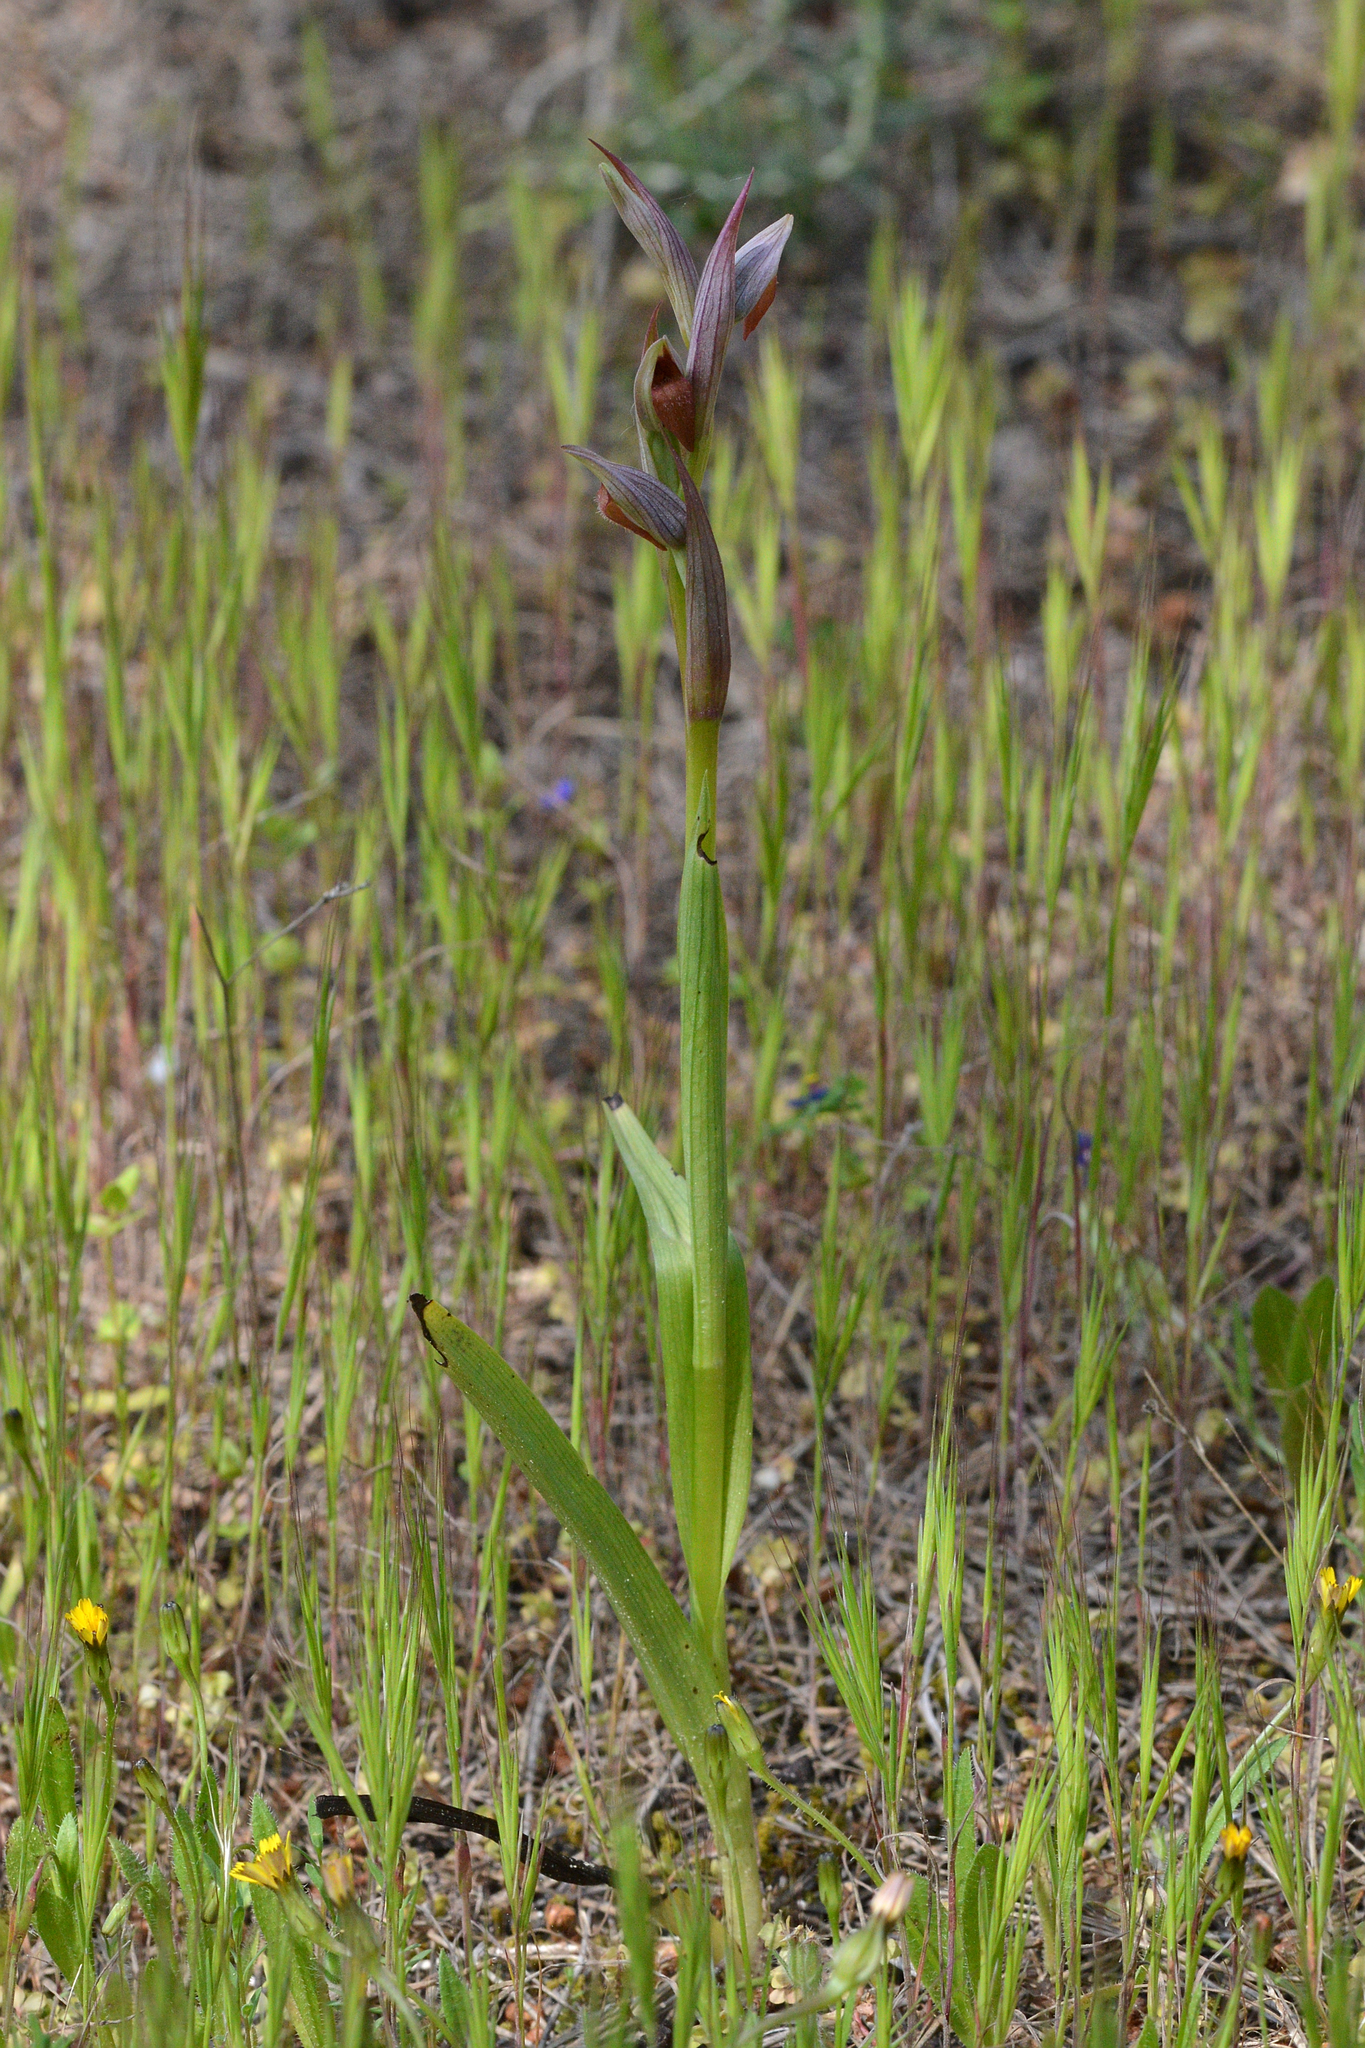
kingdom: Plantae
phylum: Tracheophyta
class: Liliopsida
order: Asparagales
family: Orchidaceae
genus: Serapias
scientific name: Serapias parviflora
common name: Small-flowered tongue-orchid
